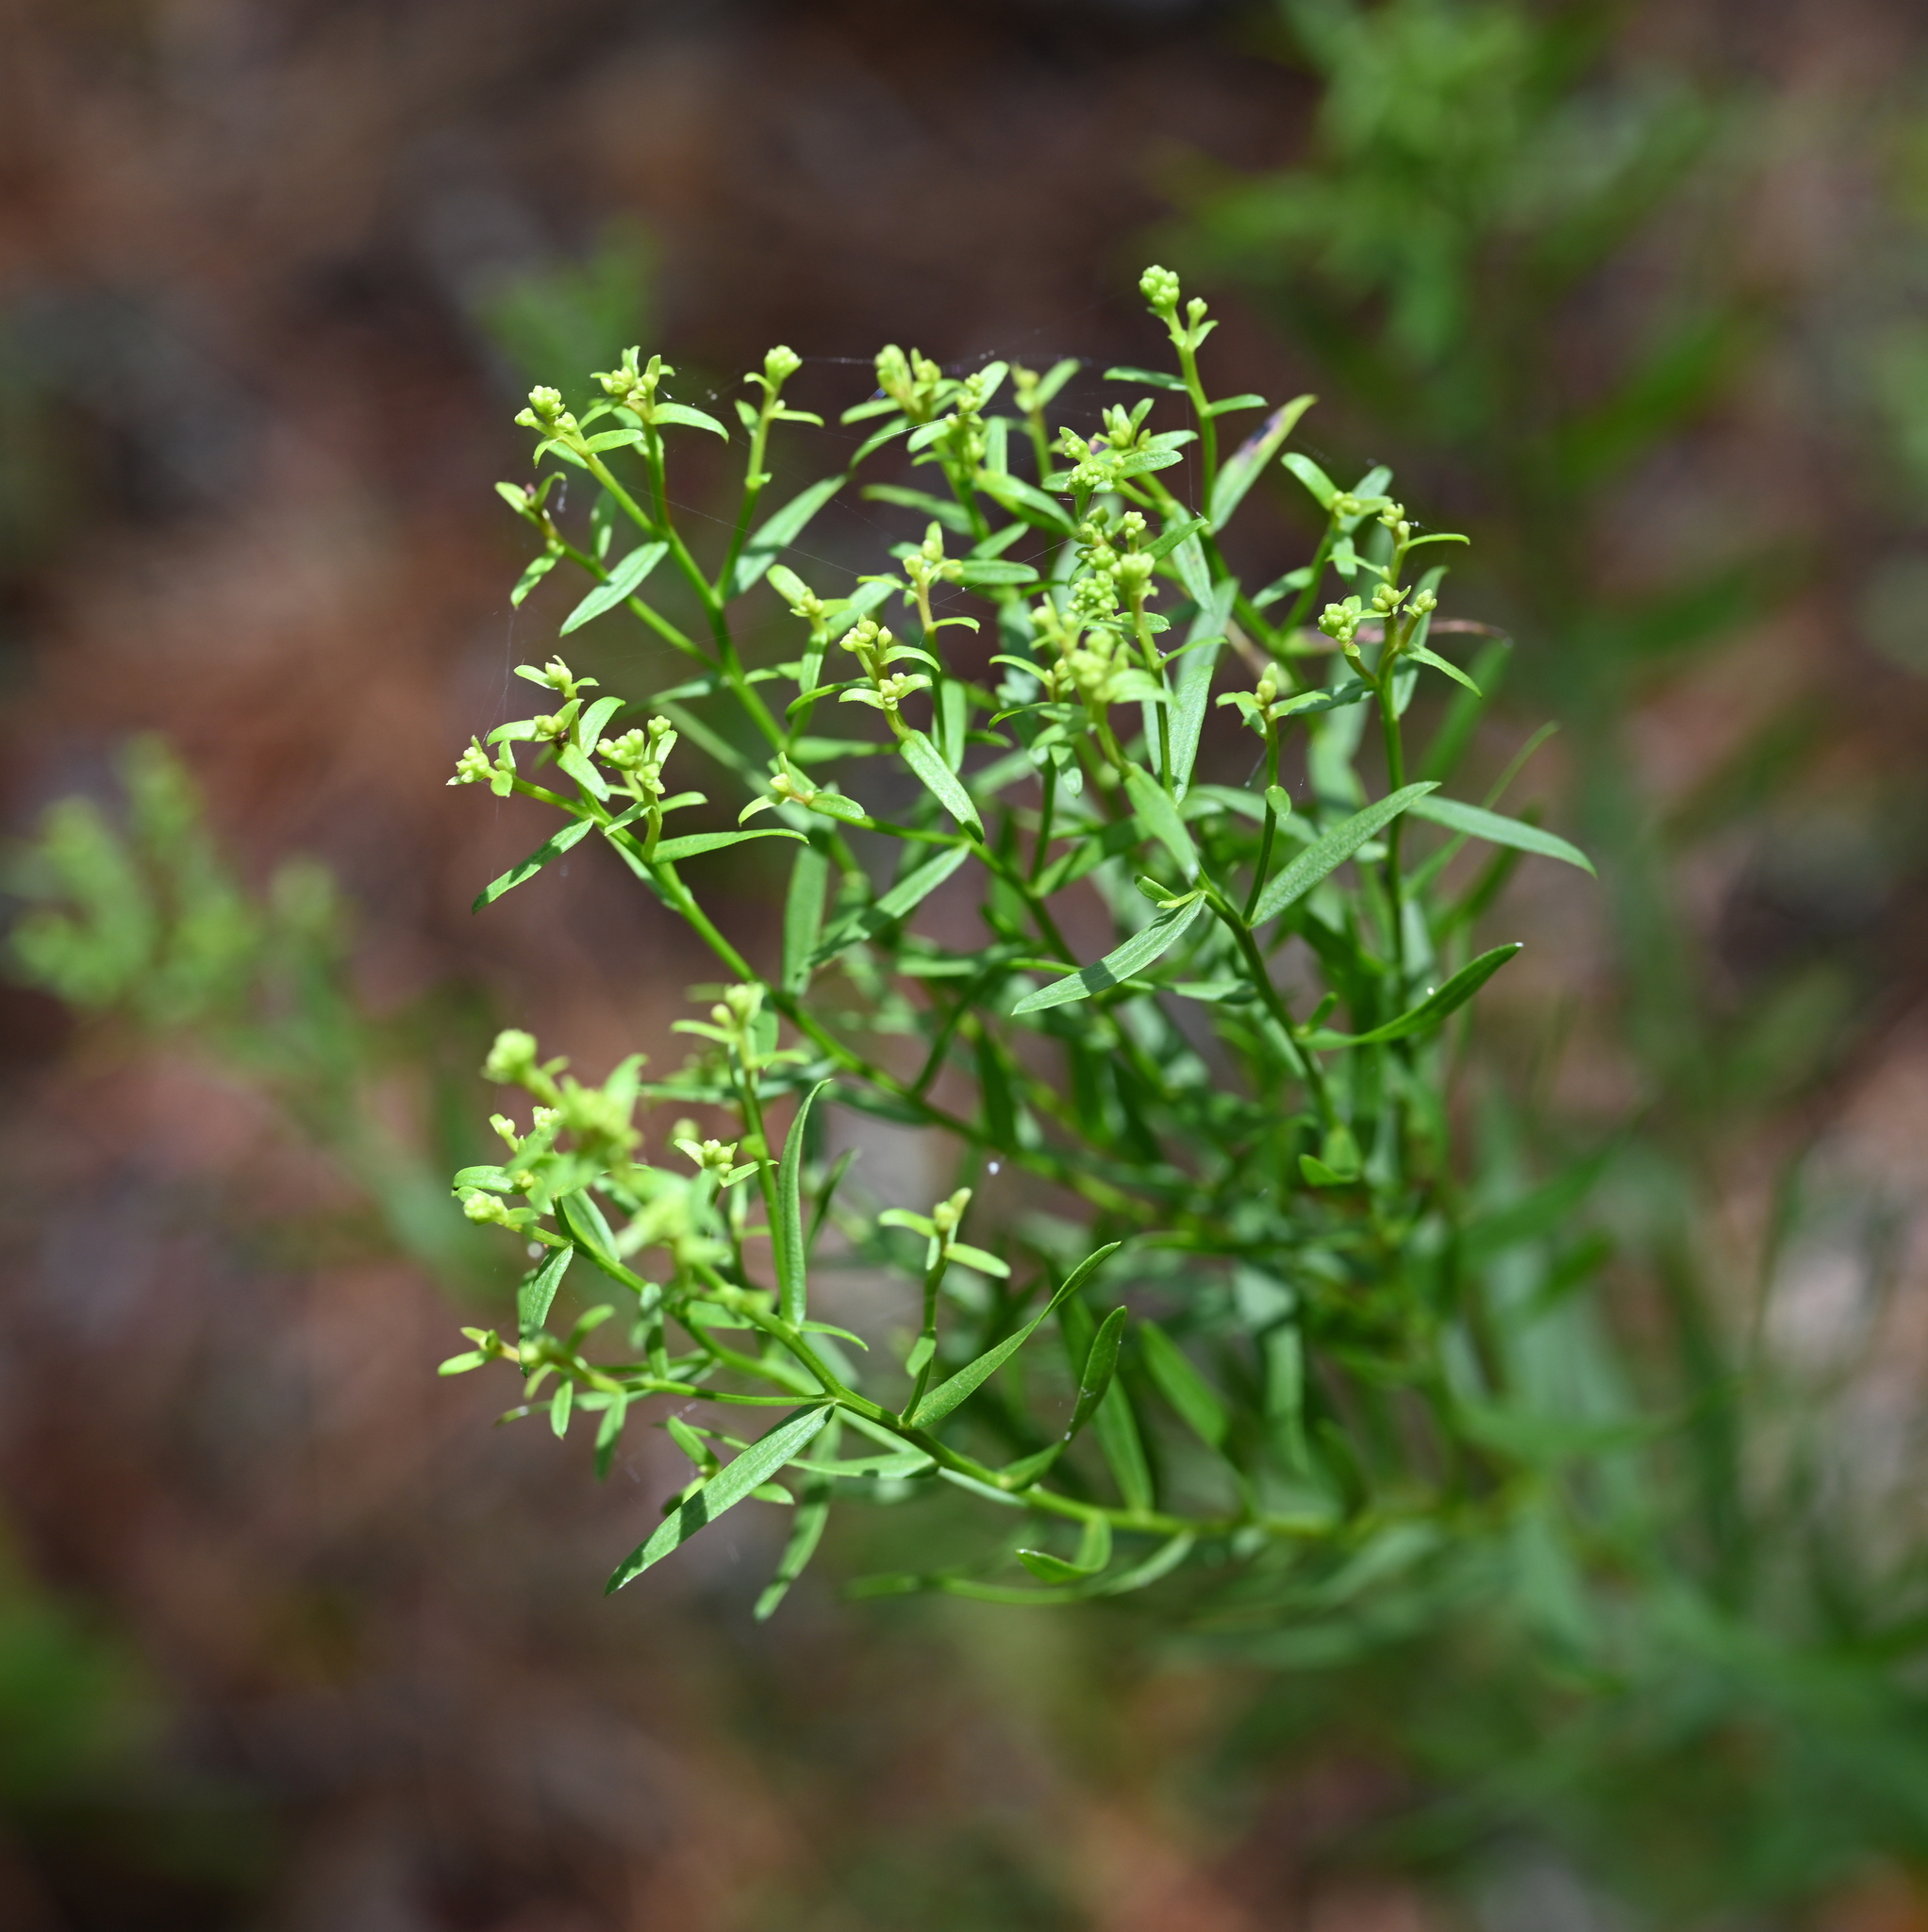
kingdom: Plantae
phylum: Tracheophyta
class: Magnoliopsida
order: Asterales
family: Asteraceae
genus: Euthamia
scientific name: Euthamia leptocephala
